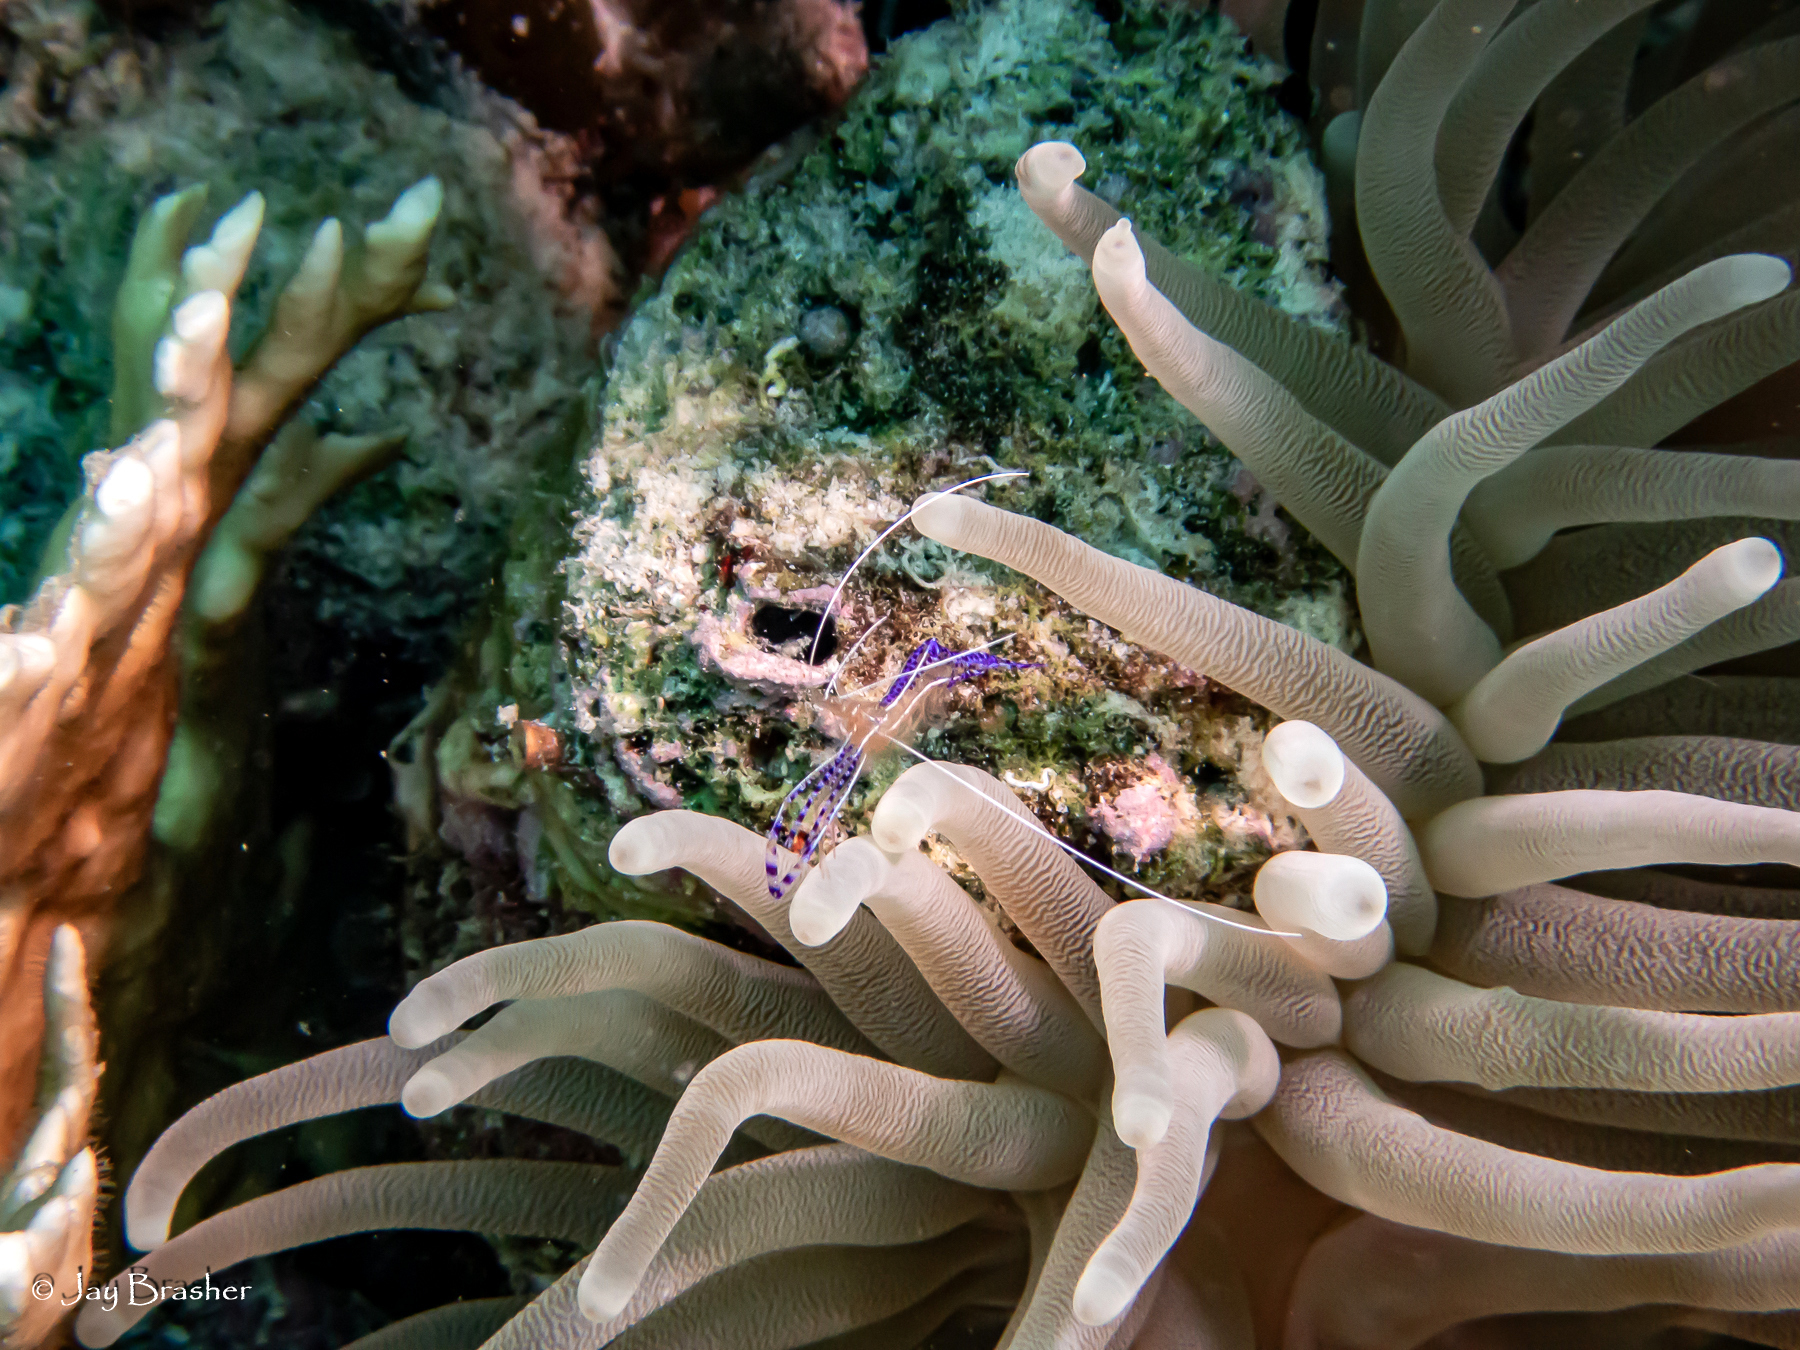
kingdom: Animalia
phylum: Cnidaria
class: Anthozoa
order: Actiniaria
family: Actiniidae
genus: Condylactis
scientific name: Condylactis gigantea
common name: Giant caribbean anemone
